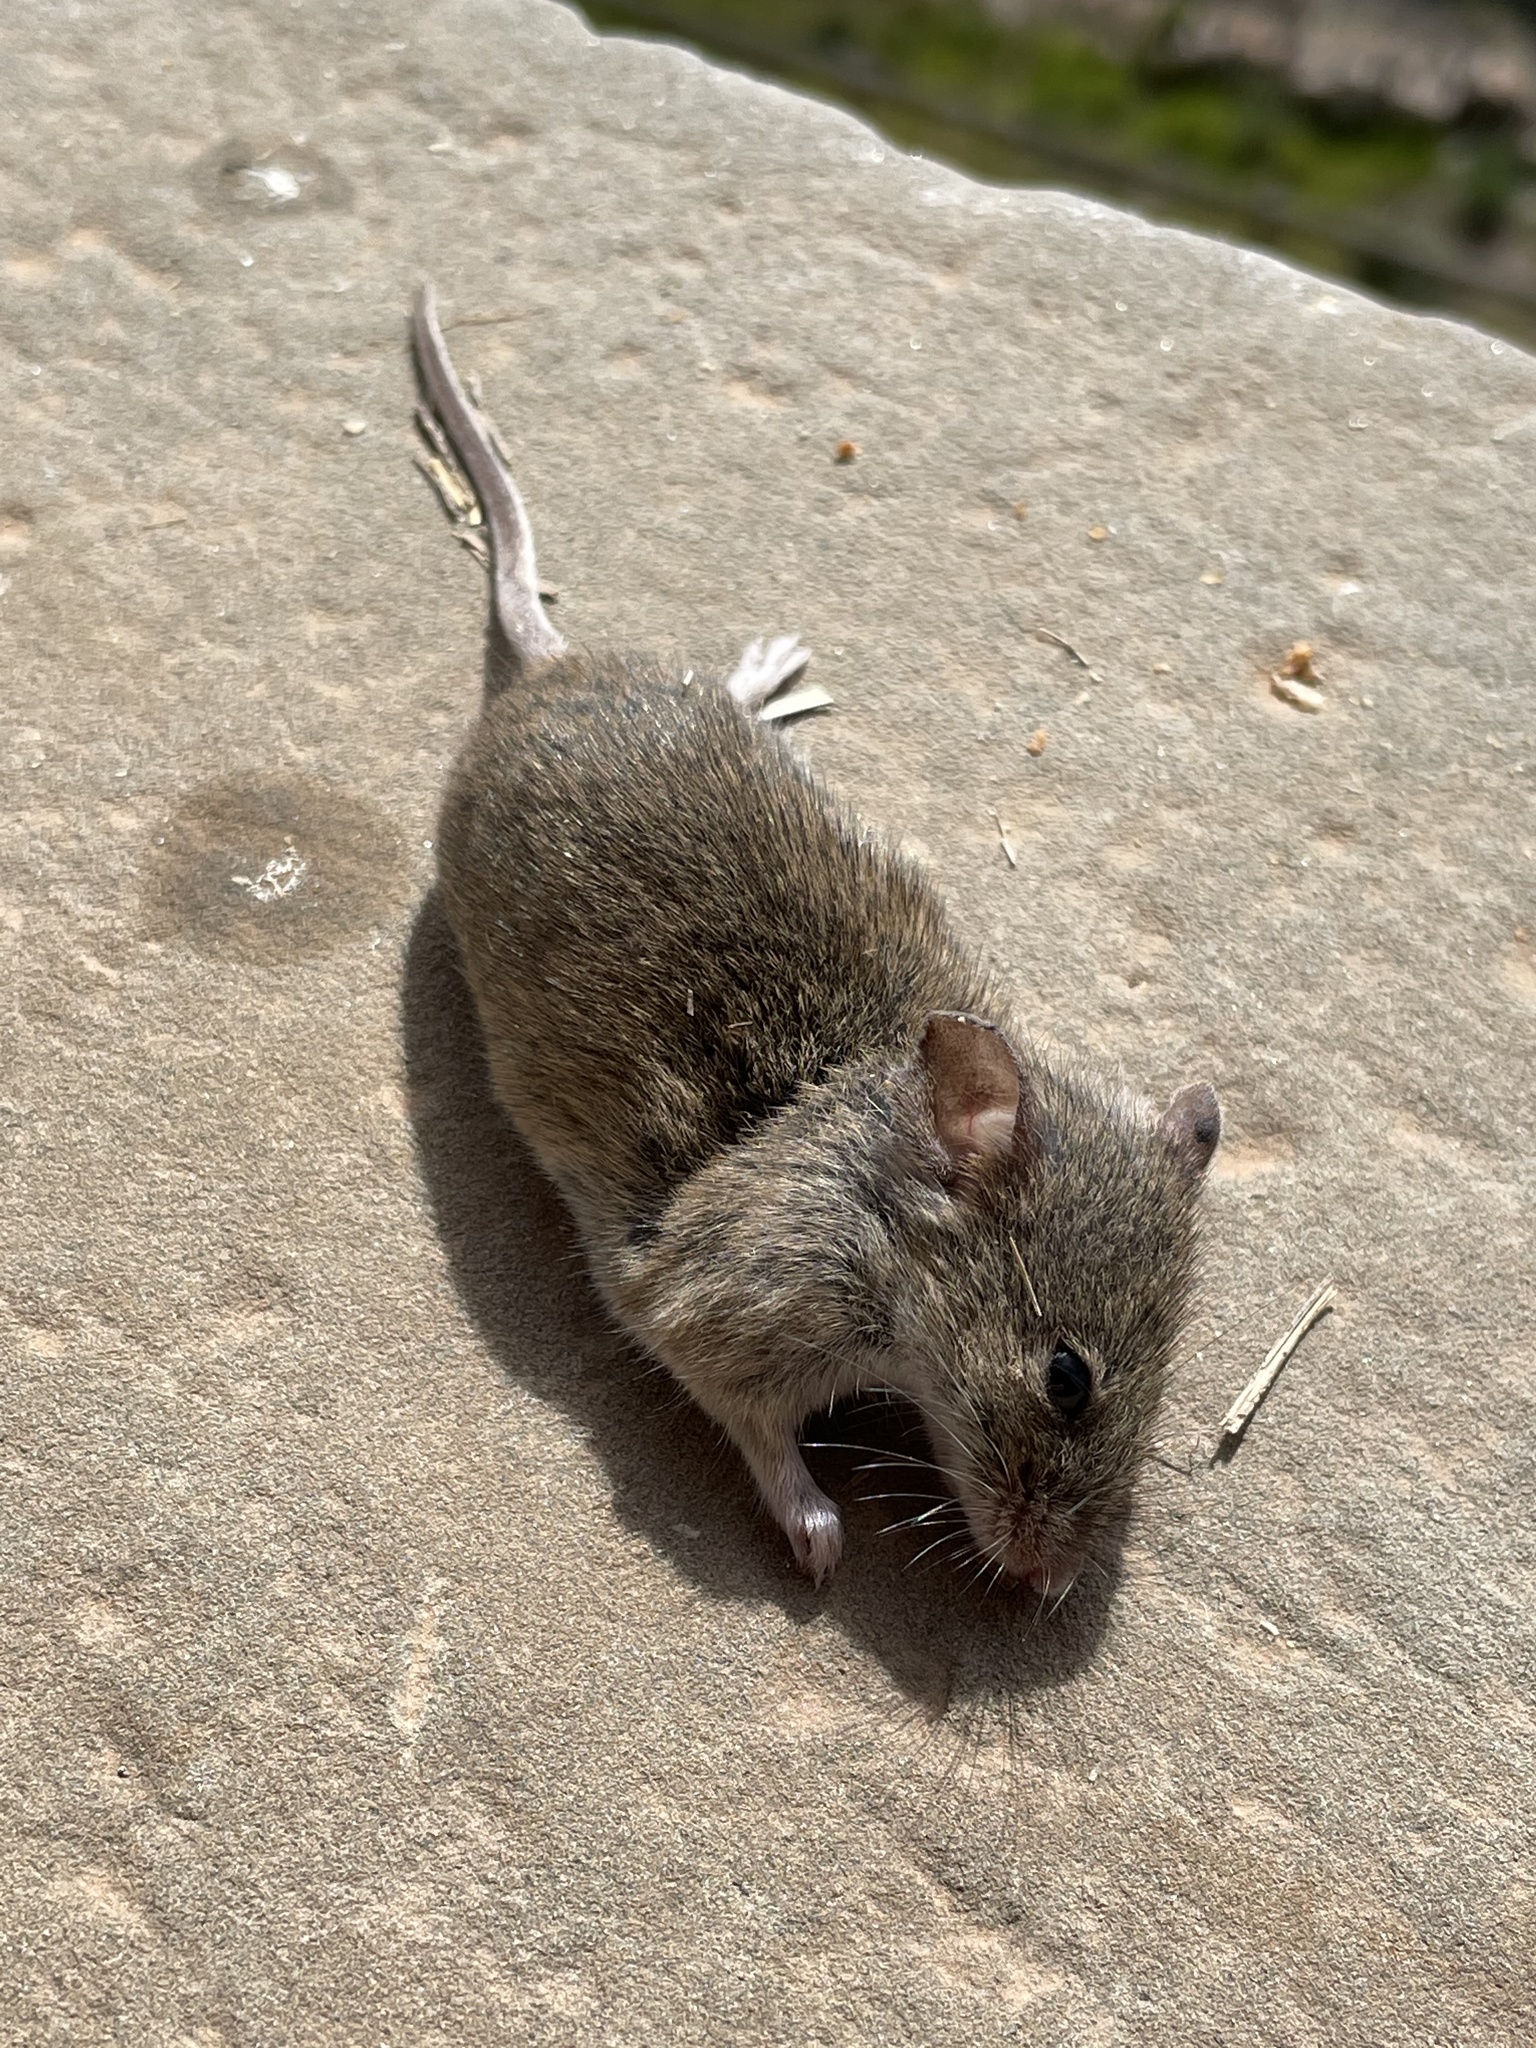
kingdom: Animalia
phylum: Chordata
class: Mammalia
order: Rodentia
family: Muridae
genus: Mus
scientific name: Mus musculus
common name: House mouse
